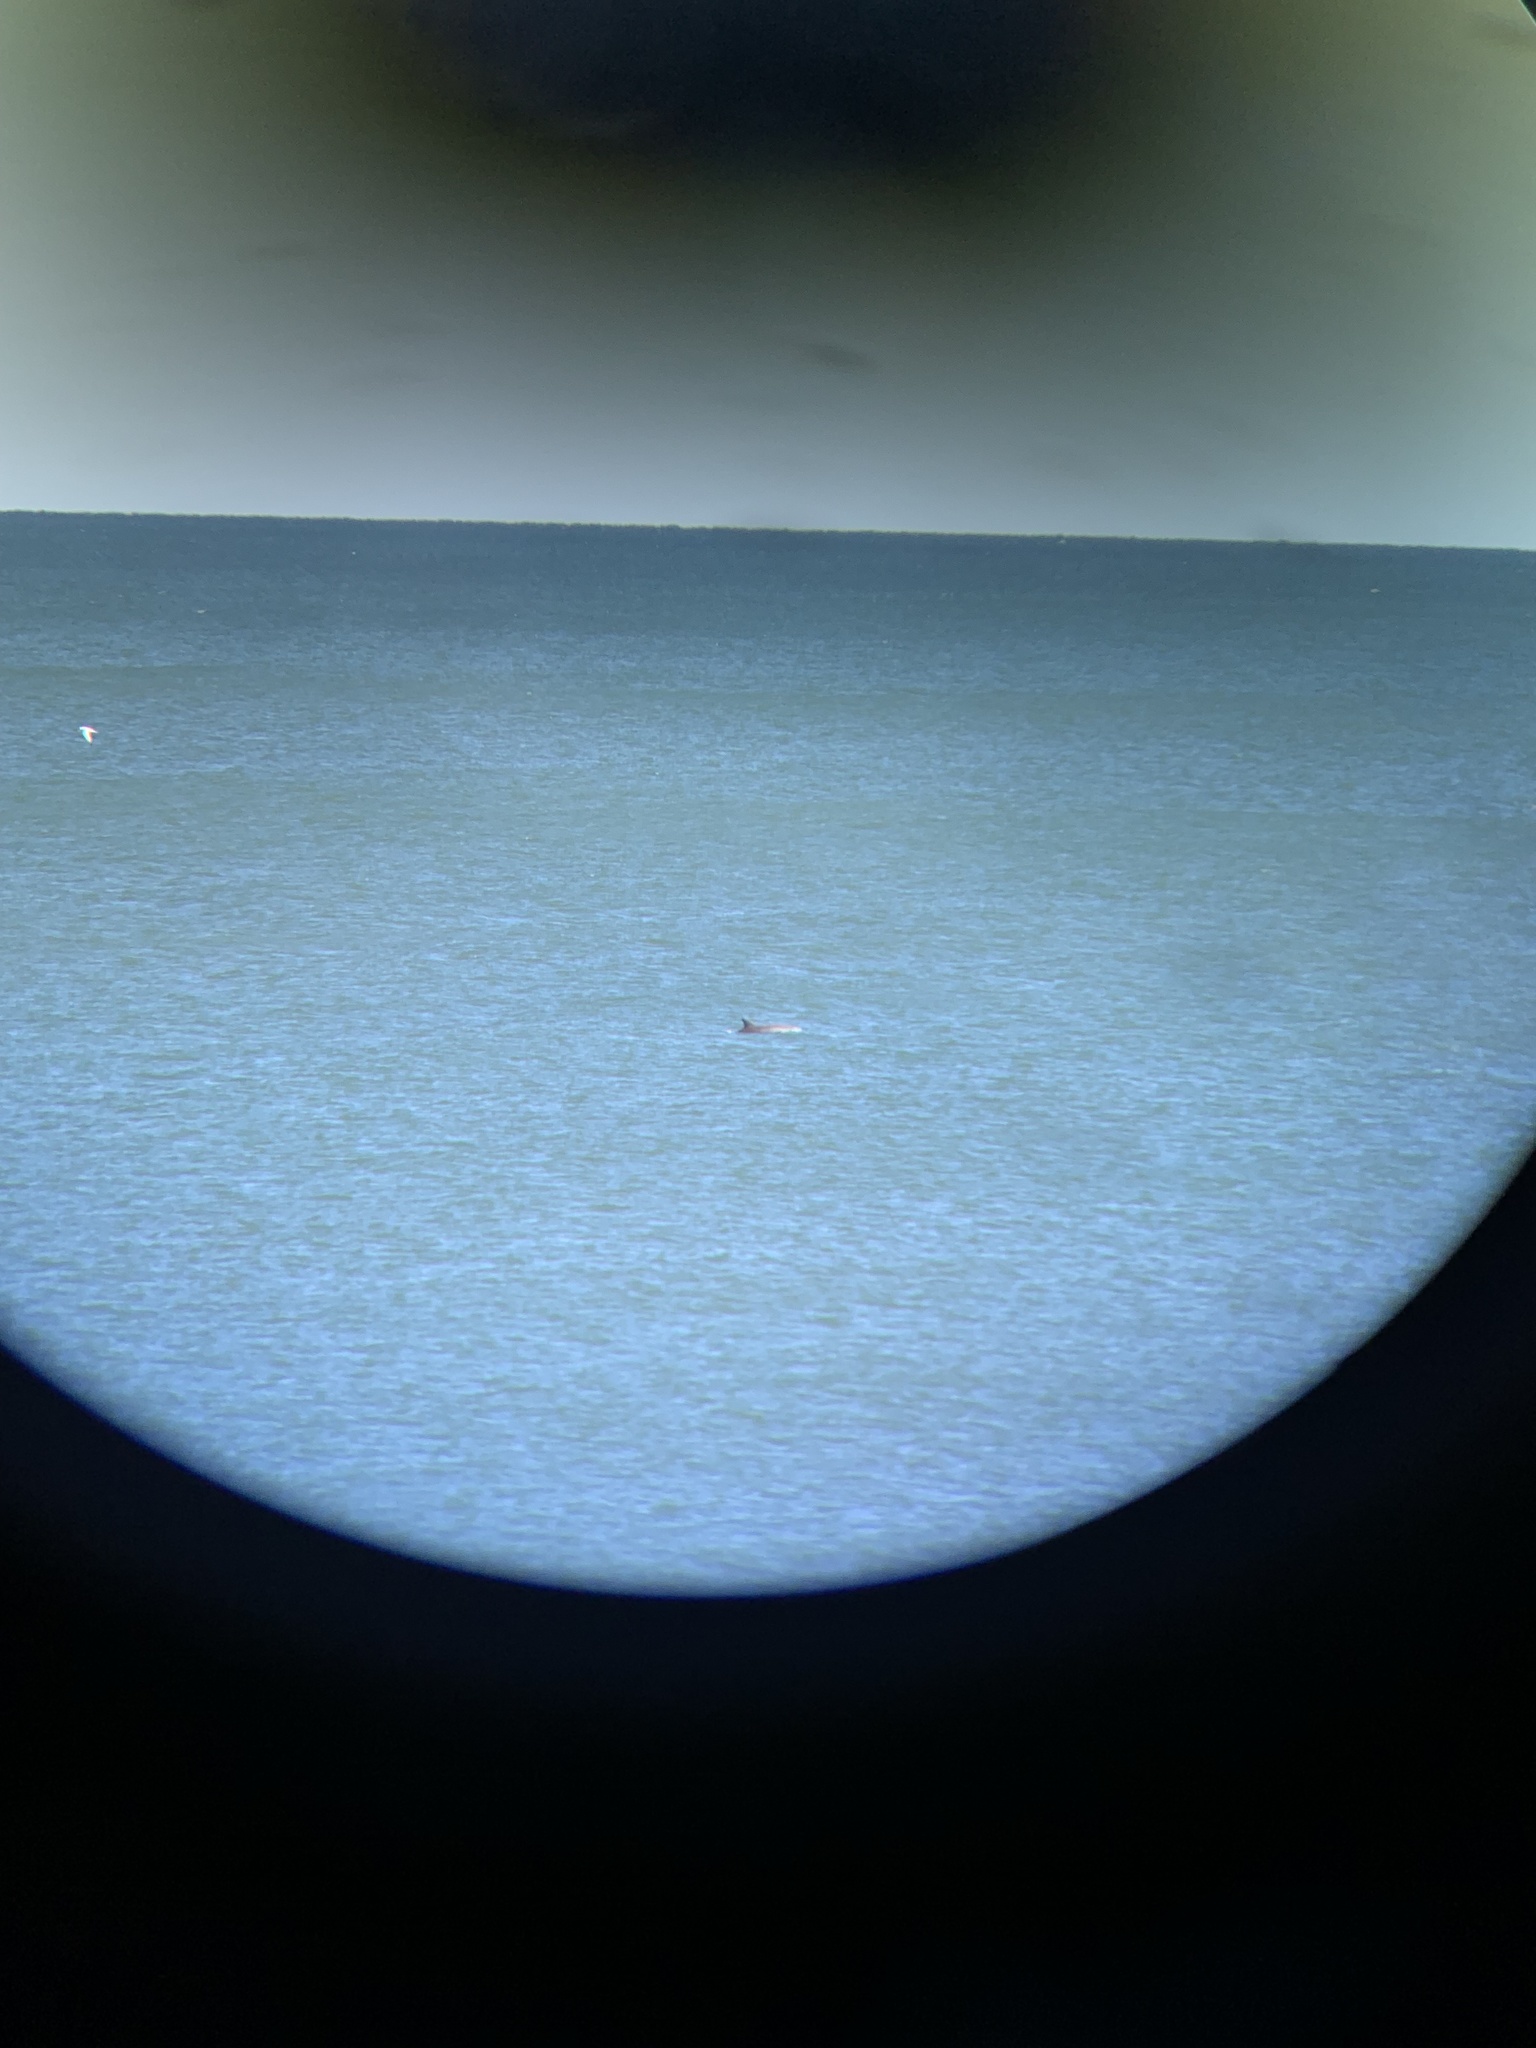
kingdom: Animalia
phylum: Chordata
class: Mammalia
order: Cetacea
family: Delphinidae
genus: Tursiops
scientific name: Tursiops truncatus
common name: Bottlenose dolphin
